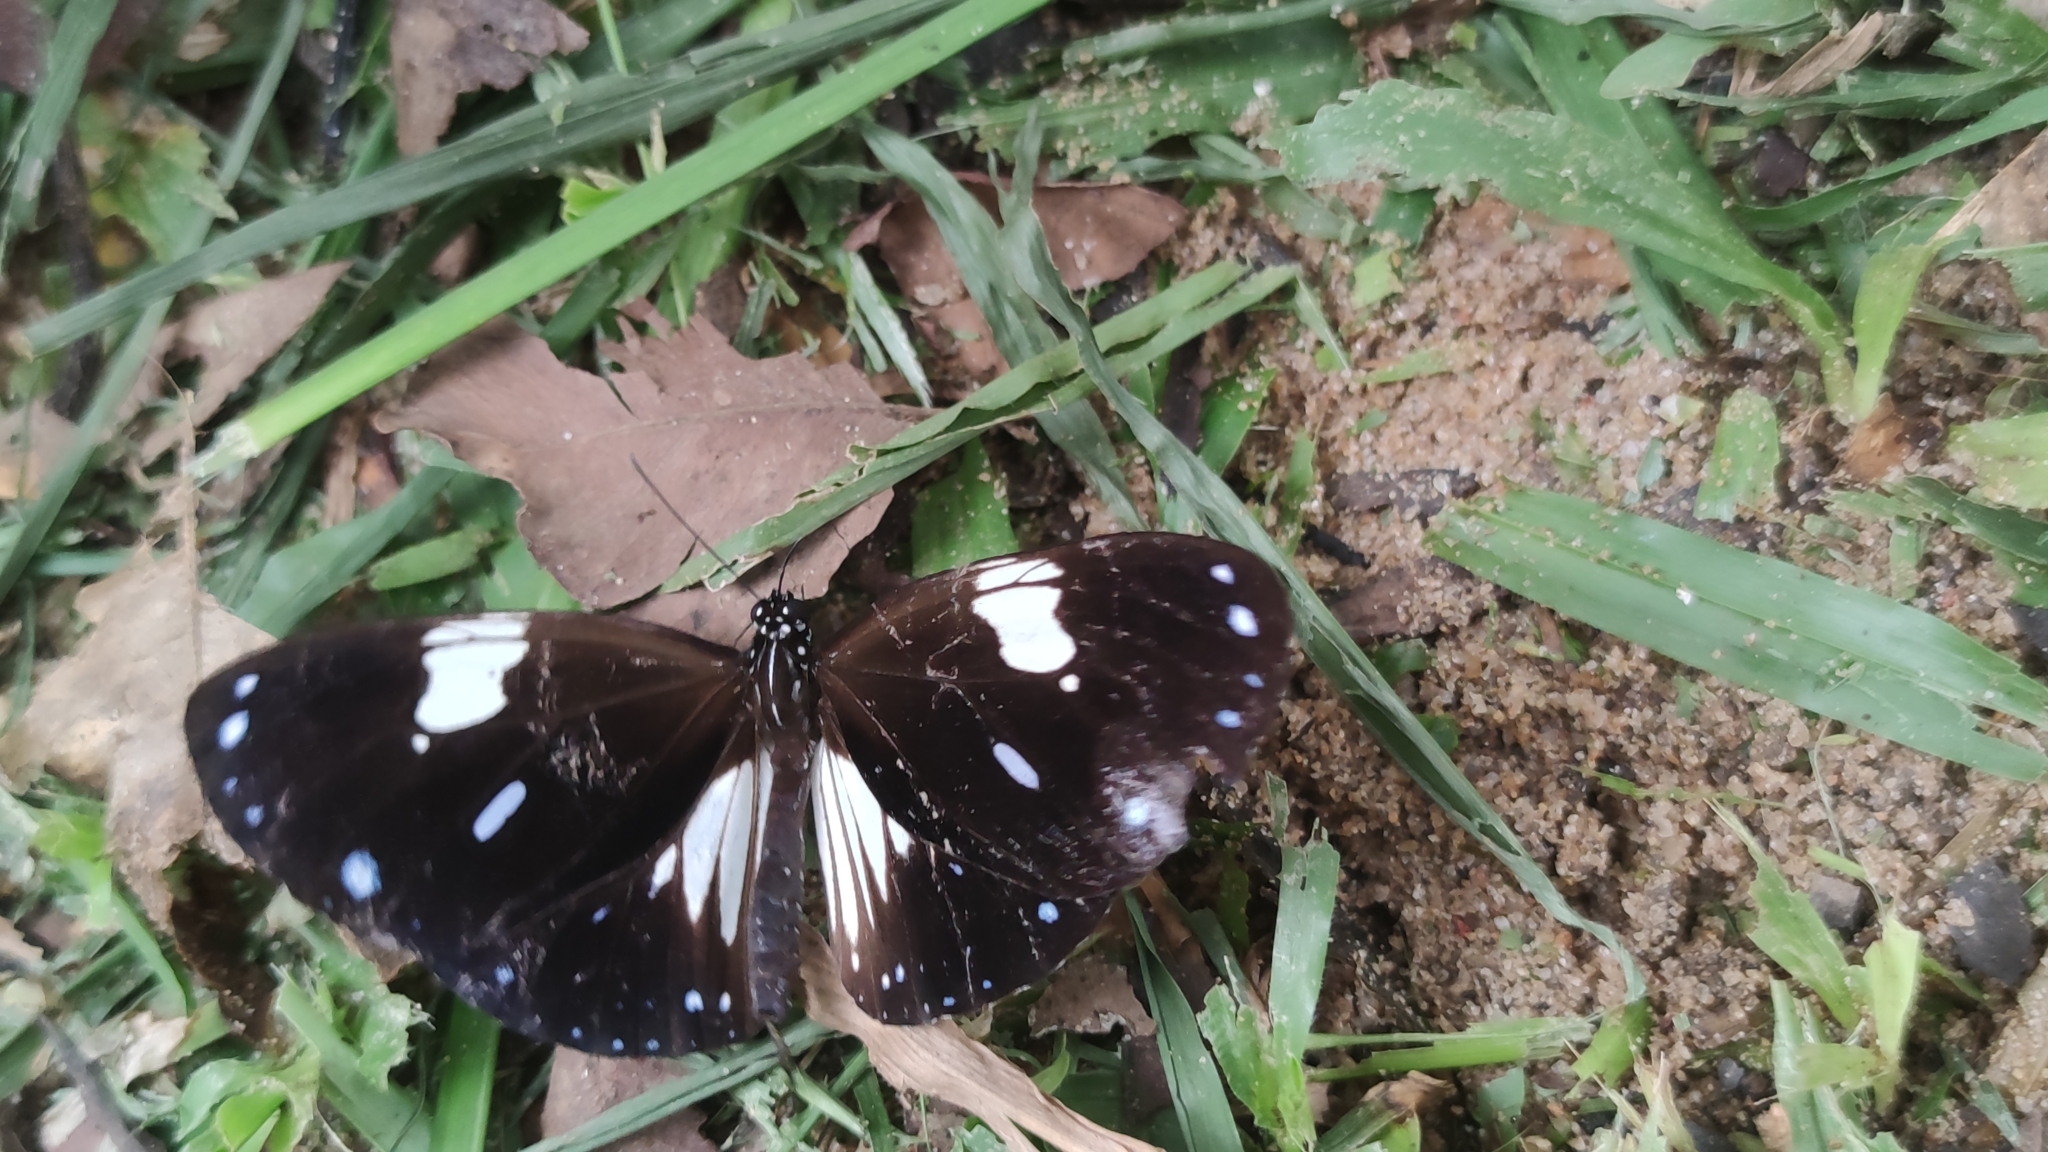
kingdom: Animalia
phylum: Arthropoda
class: Insecta
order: Lepidoptera
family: Nymphalidae
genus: Euploea
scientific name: Euploea radamanthus
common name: Magpie crow butterfly
